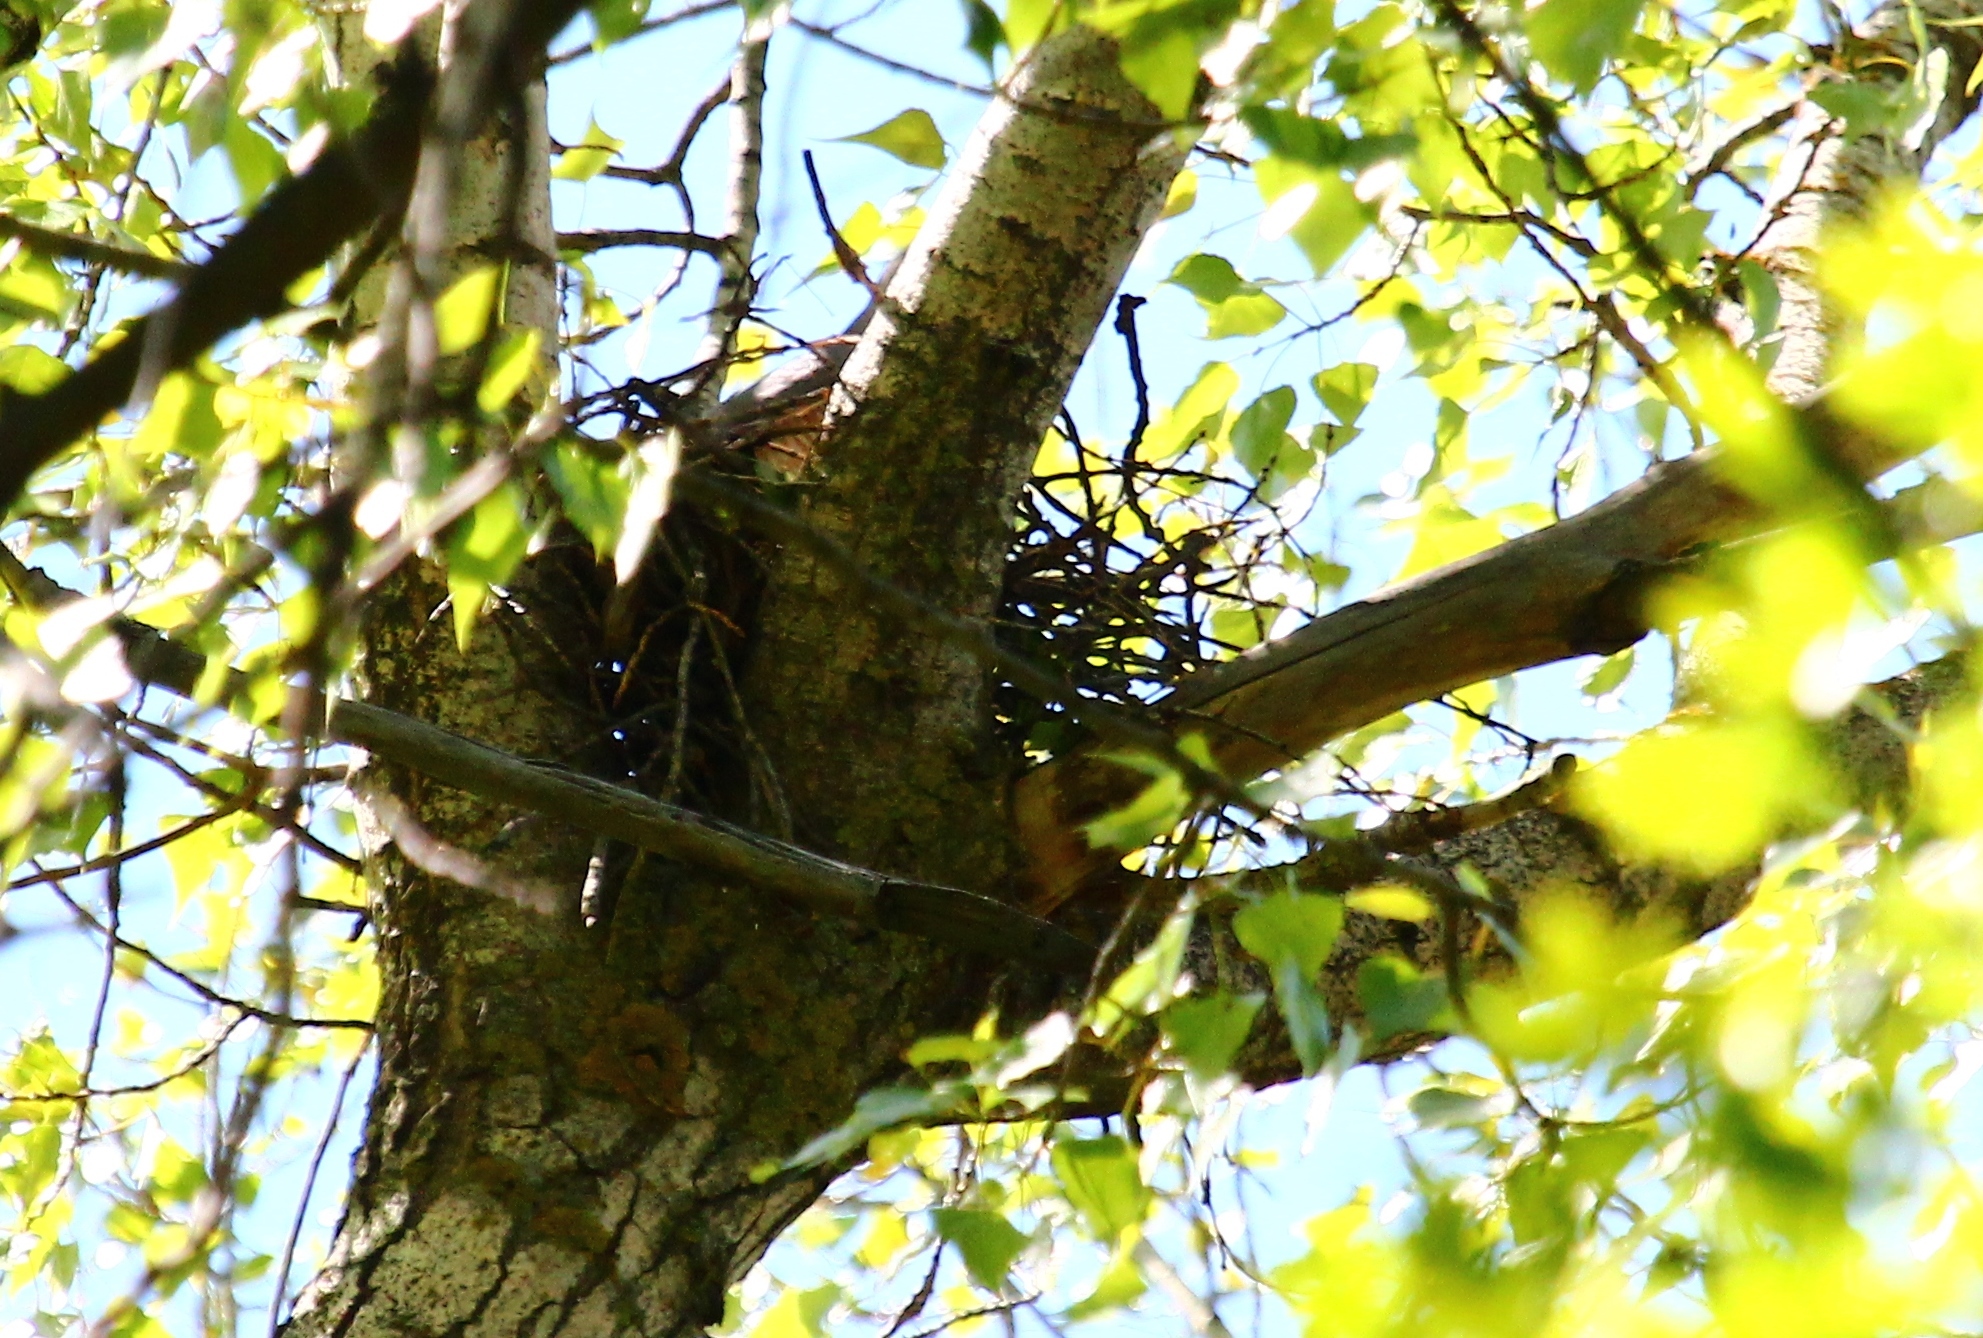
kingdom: Animalia
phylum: Chordata
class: Aves
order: Accipitriformes
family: Accipitridae
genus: Accipiter
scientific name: Accipiter brevipes
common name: Levant sparrowhawk
